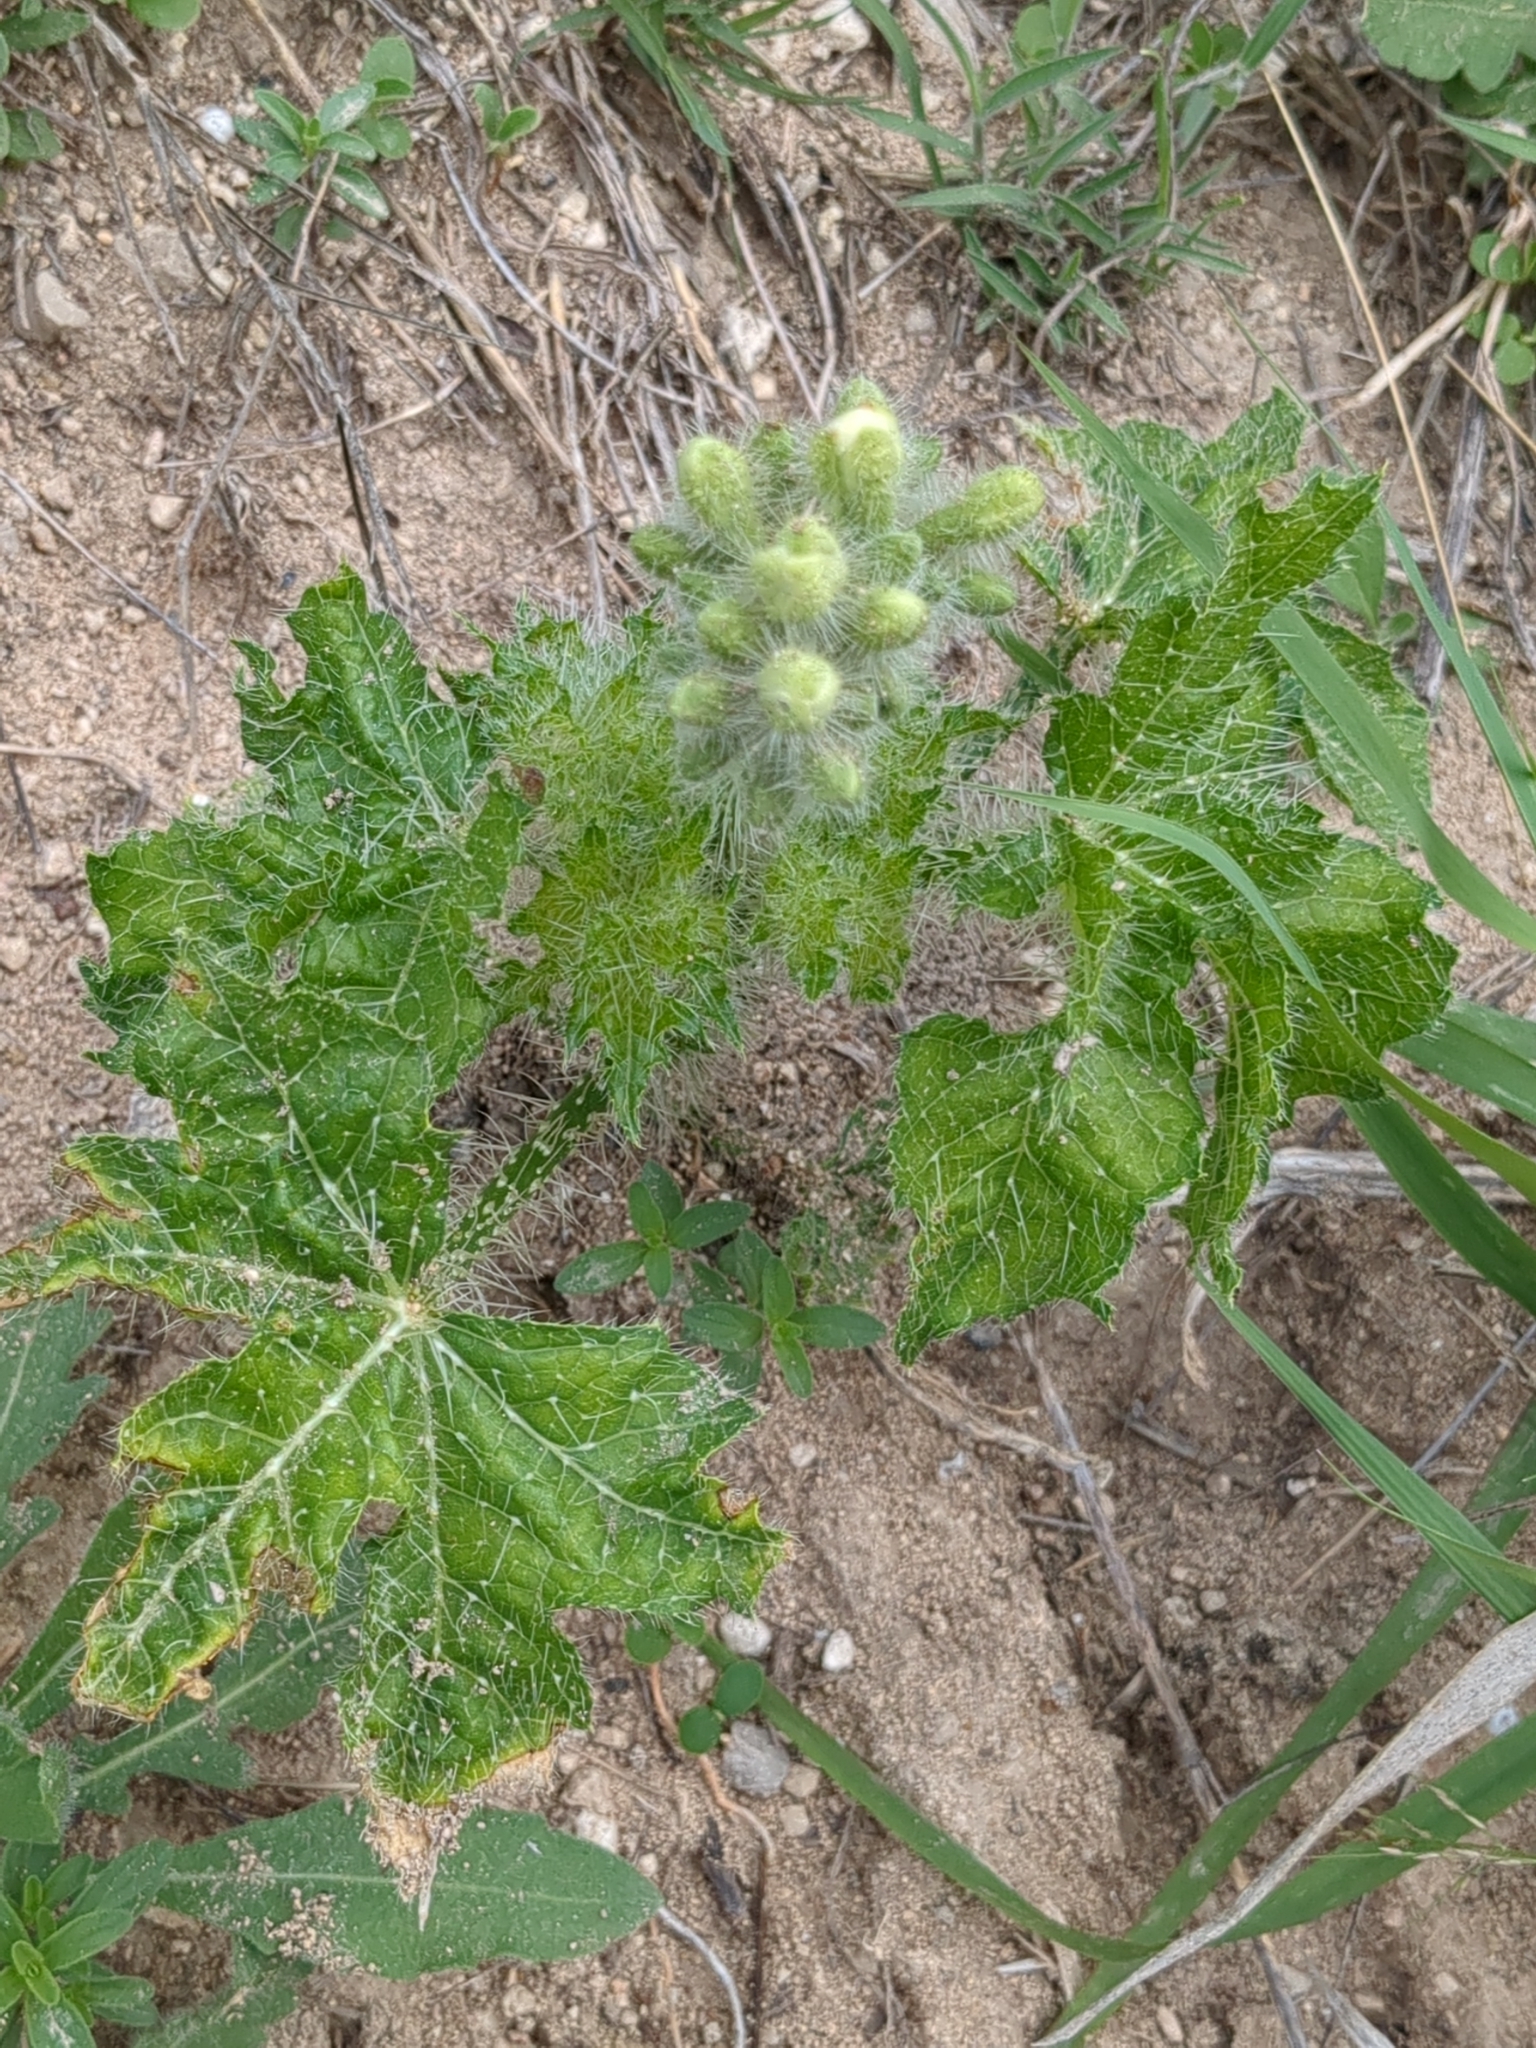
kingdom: Plantae
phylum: Tracheophyta
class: Magnoliopsida
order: Malpighiales
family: Euphorbiaceae
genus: Cnidoscolus
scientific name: Cnidoscolus texanus
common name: Texas bull-nettle
